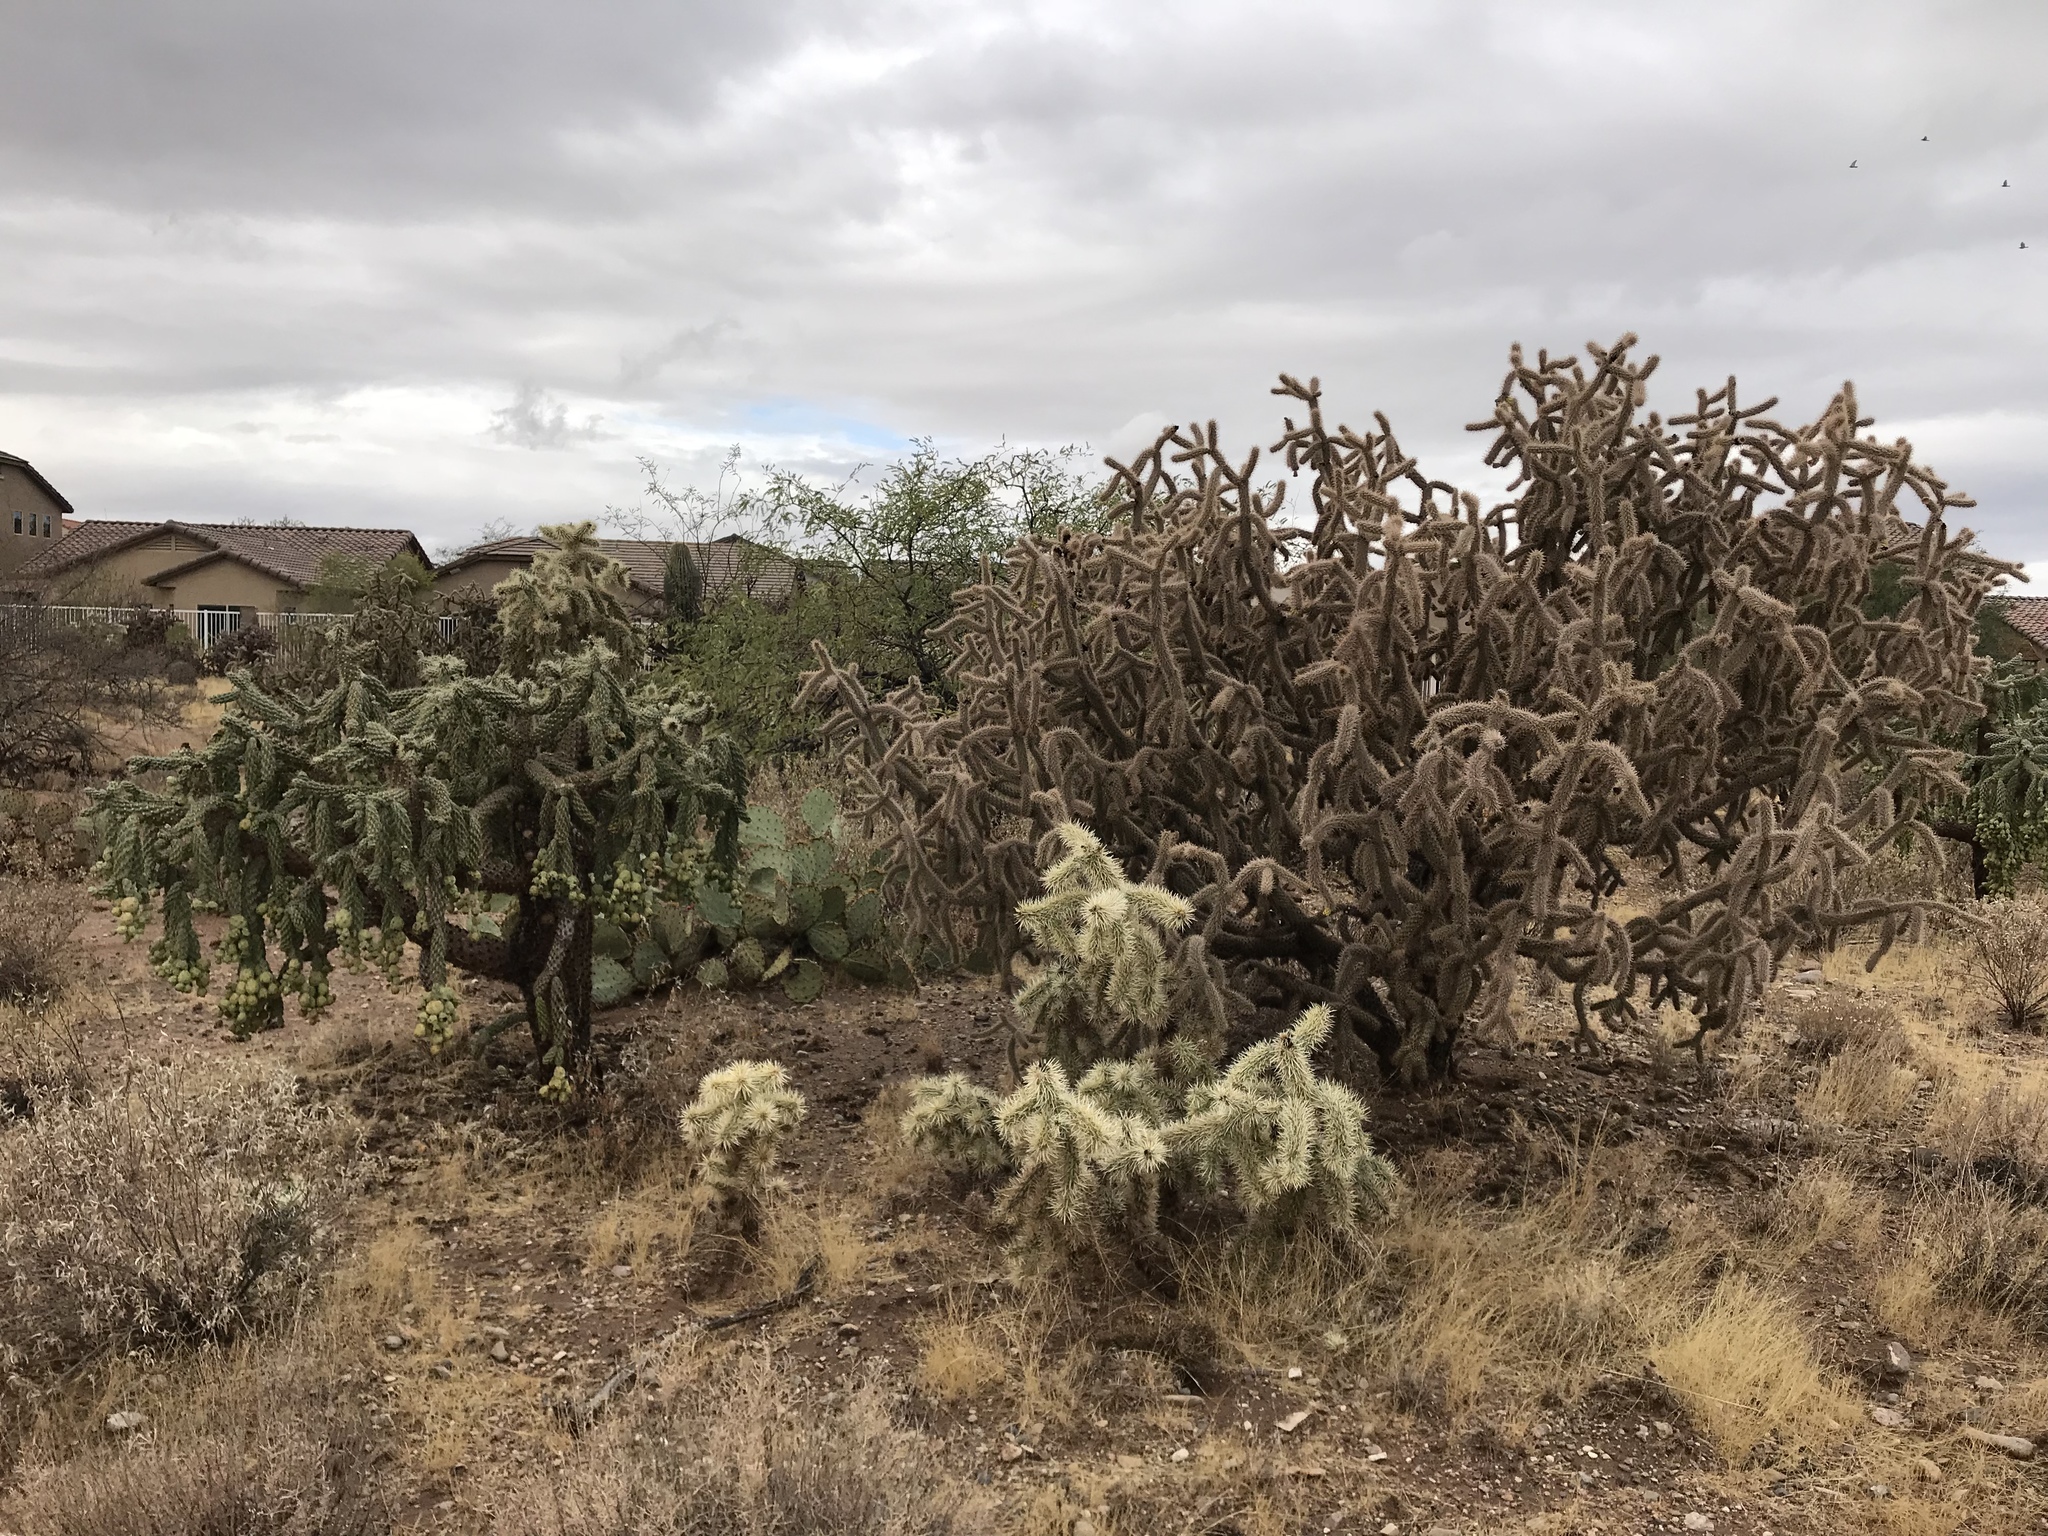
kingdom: Plantae
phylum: Tracheophyta
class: Magnoliopsida
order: Caryophyllales
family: Cactaceae
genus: Cylindropuntia
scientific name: Cylindropuntia imbricata
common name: Candelabrum cactus
